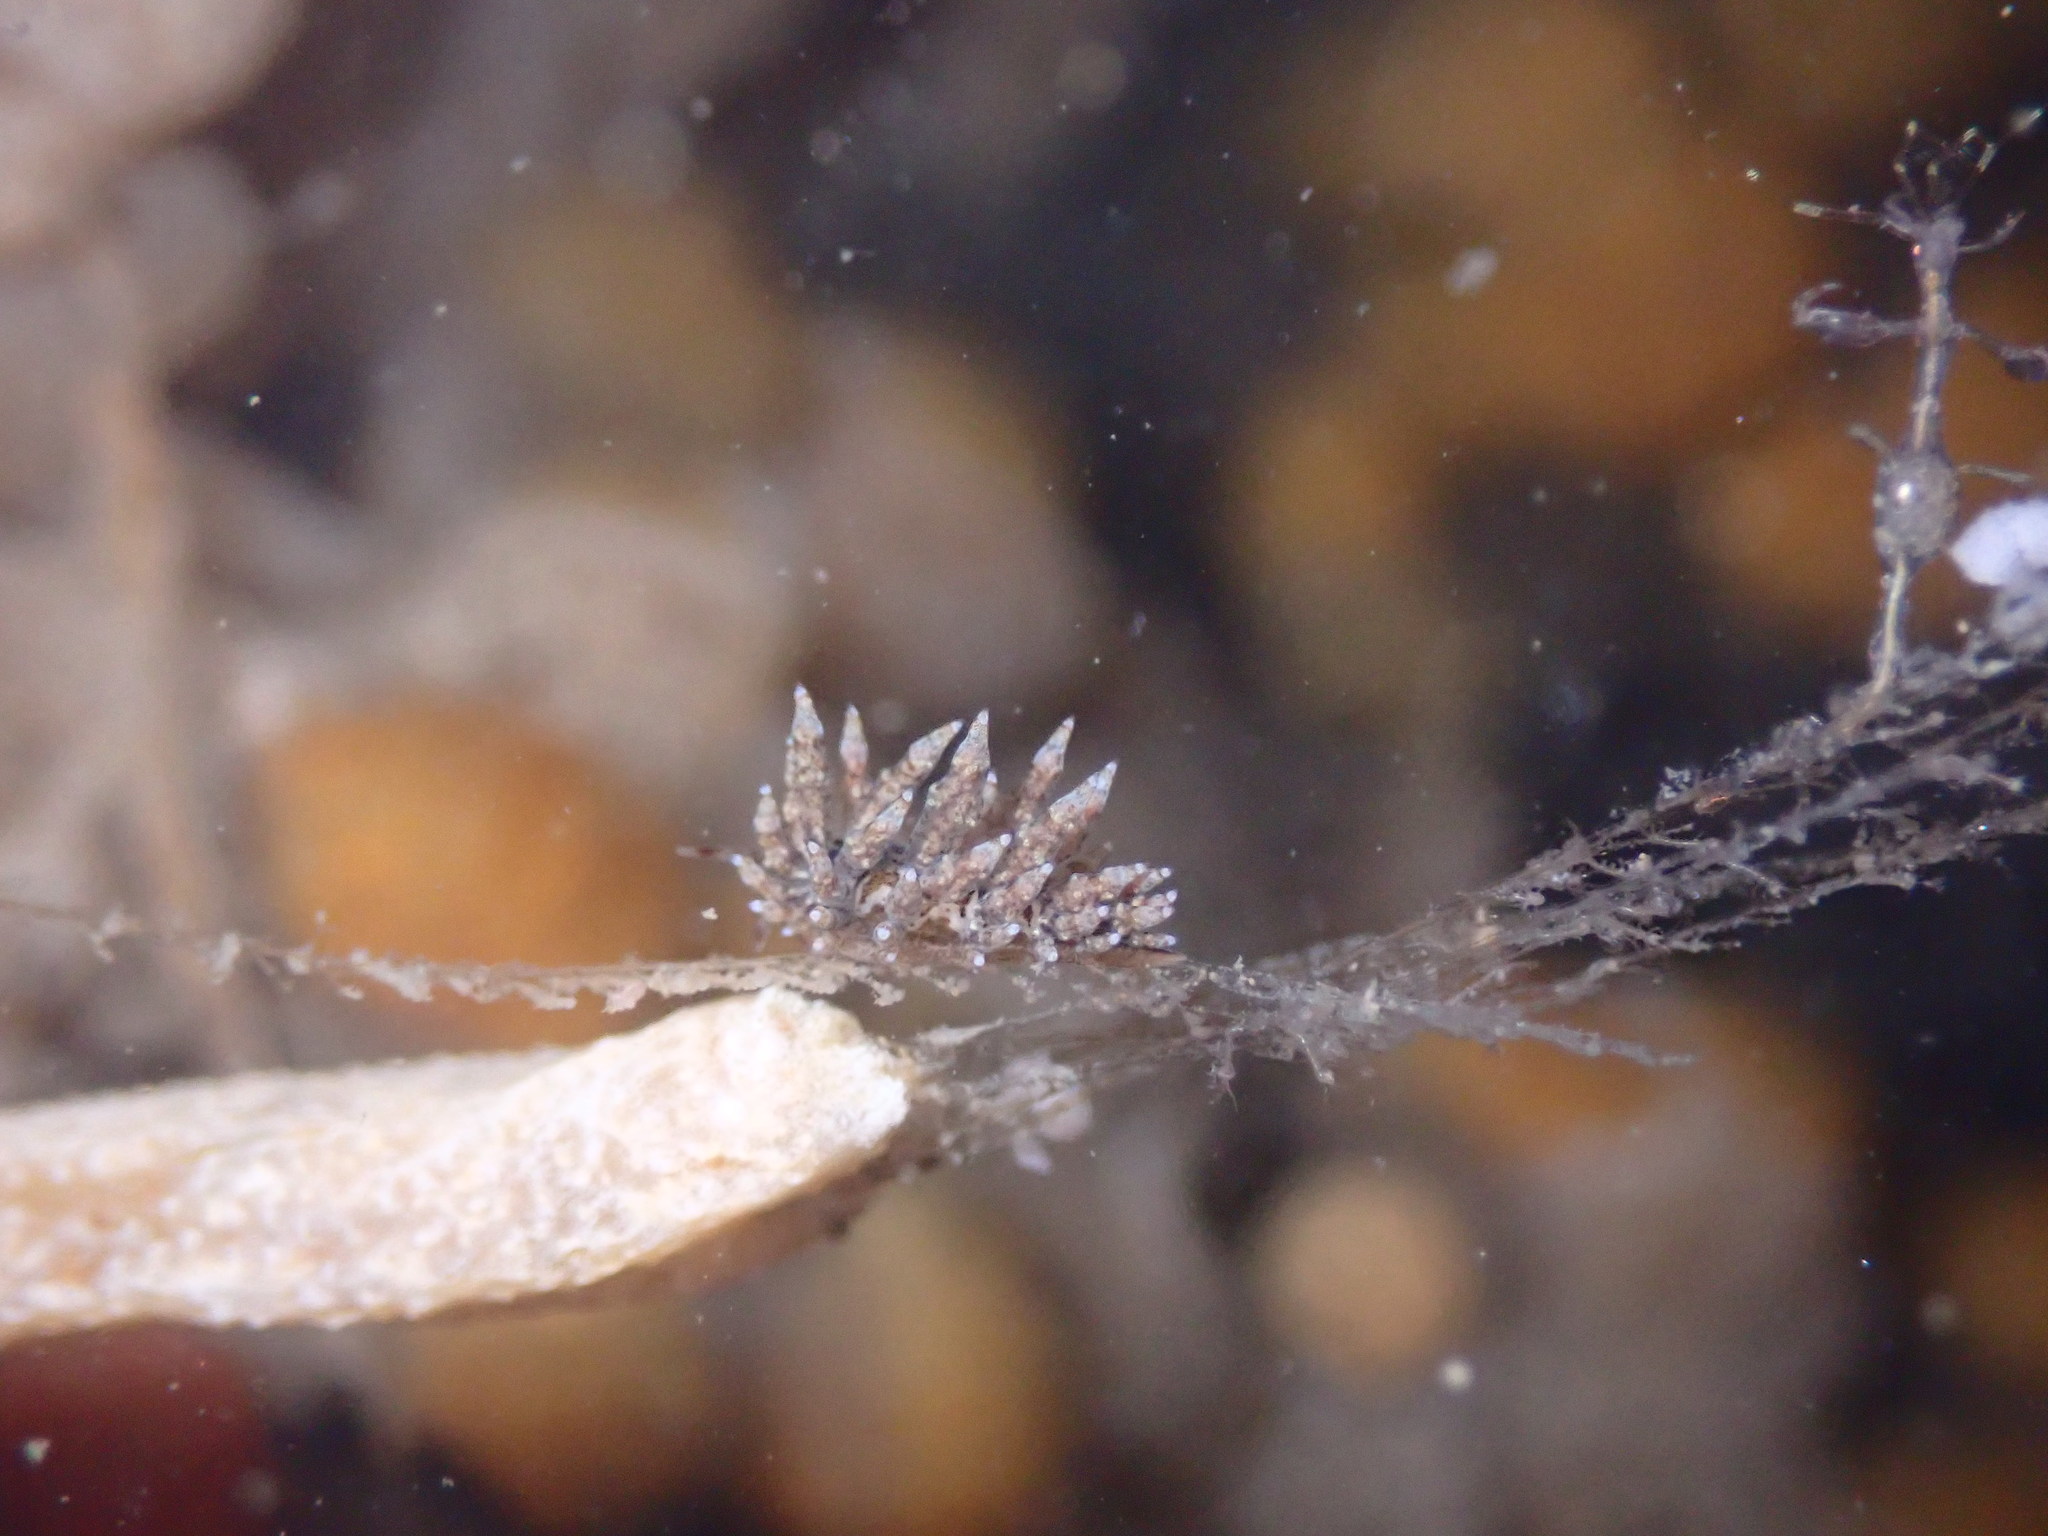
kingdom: Animalia
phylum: Mollusca
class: Gastropoda
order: Nudibranchia
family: Eubranchidae
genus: Eubranchus
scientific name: Eubranchus rustyus
